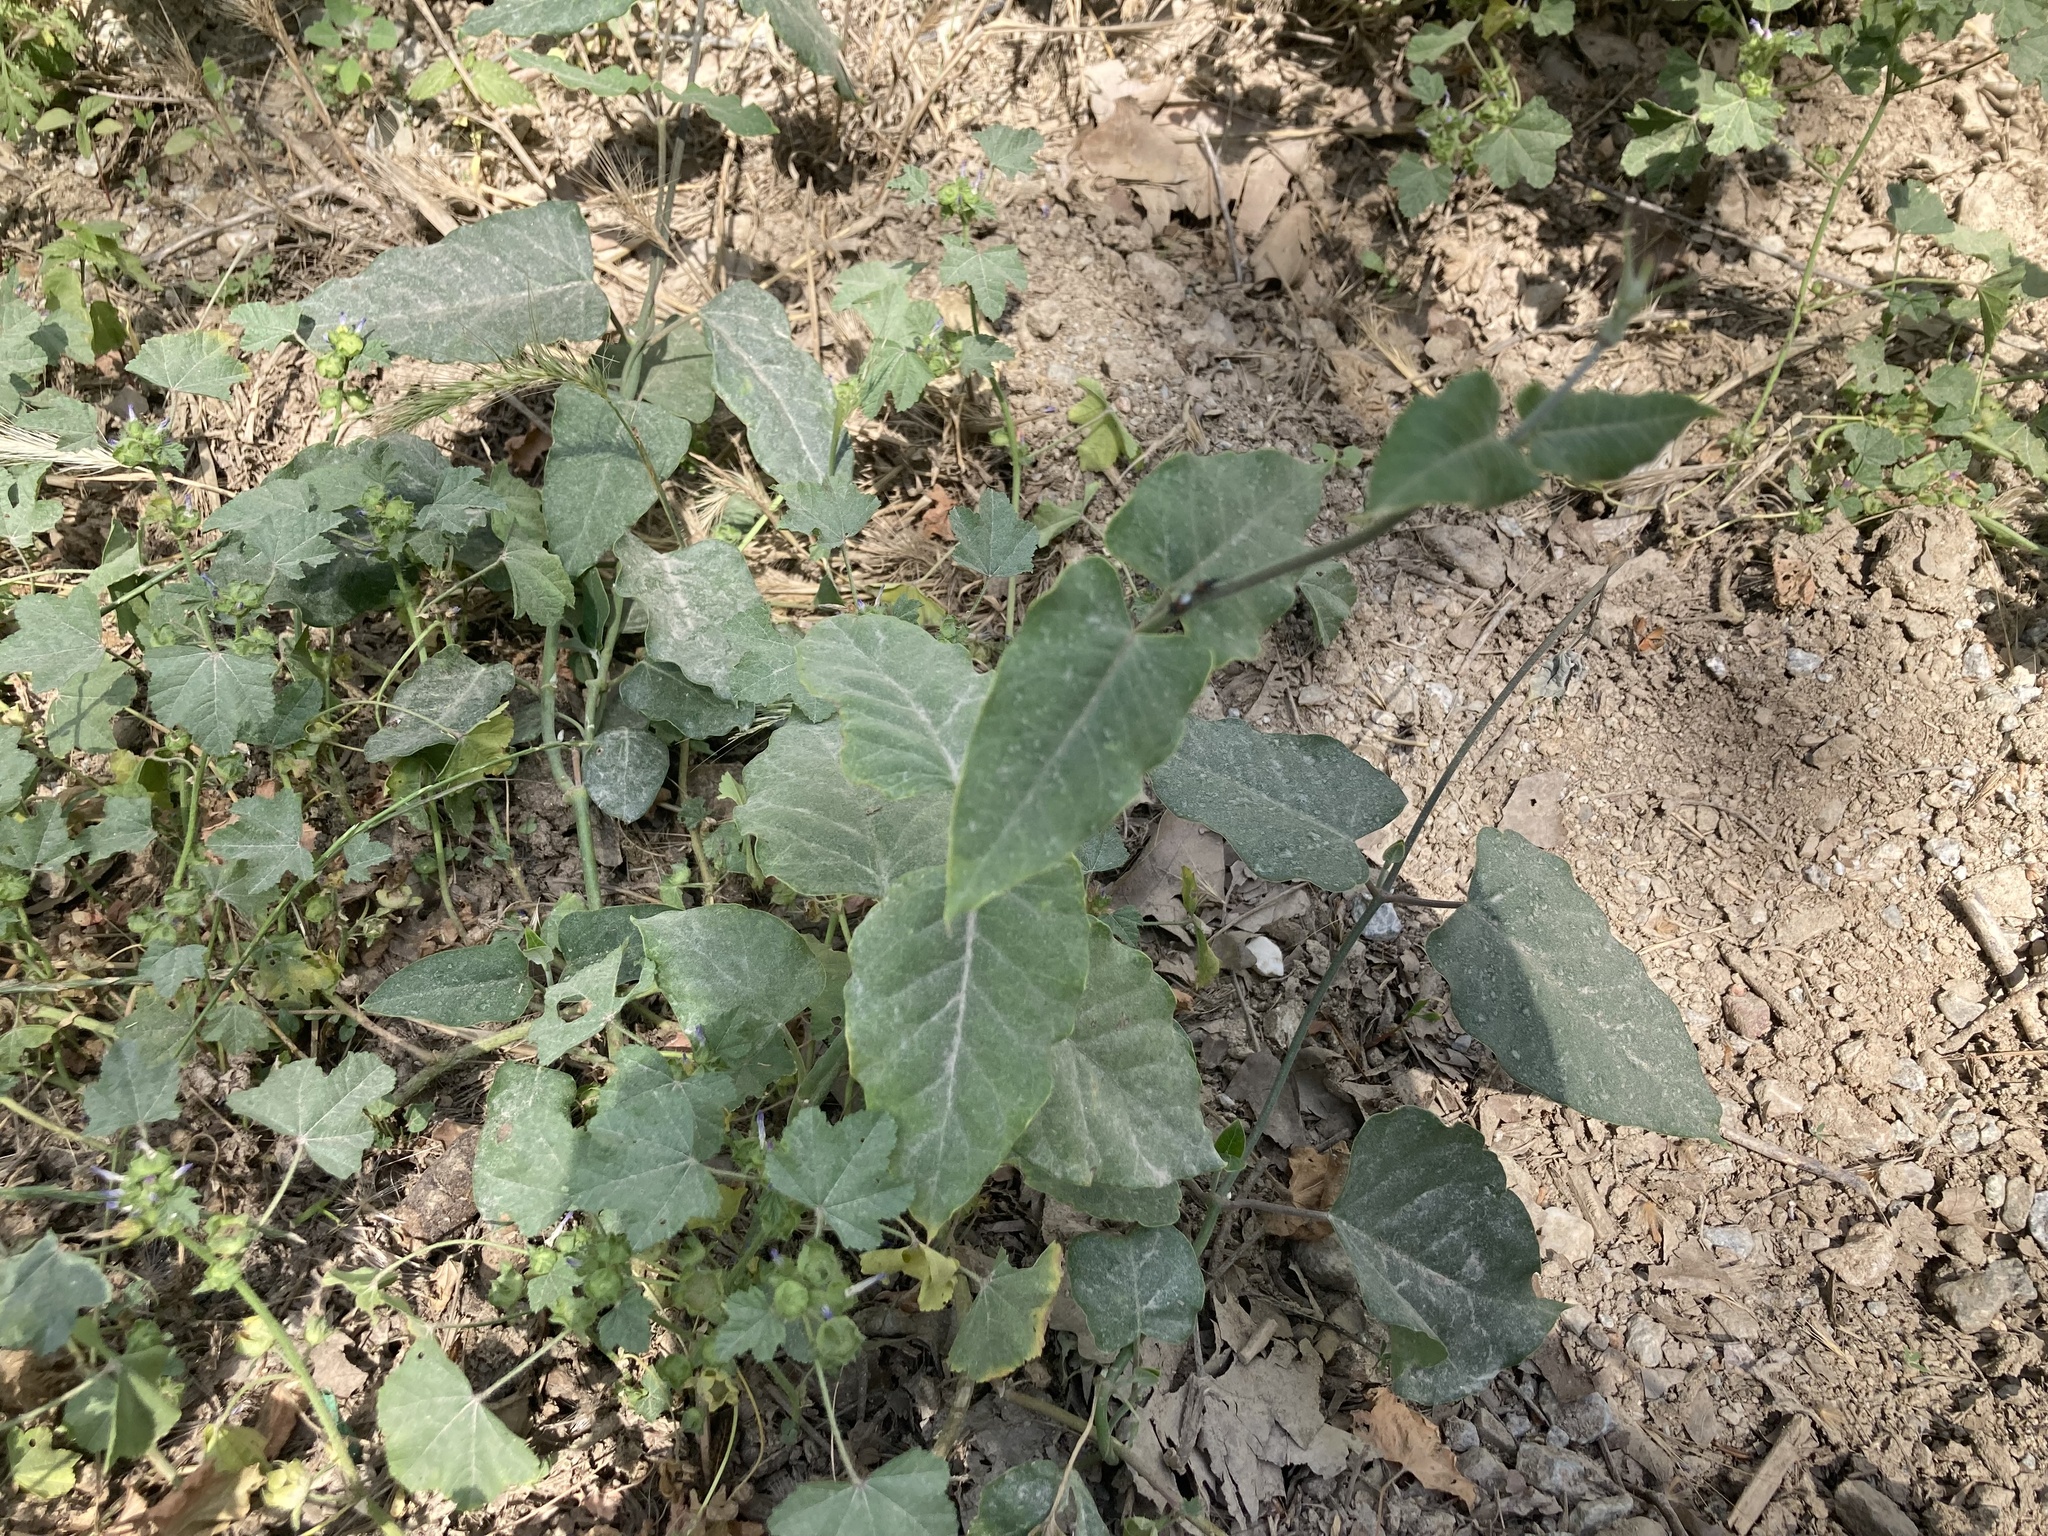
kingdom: Plantae
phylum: Tracheophyta
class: Magnoliopsida
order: Gentianales
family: Apocynaceae
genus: Araujia
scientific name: Araujia sericifera
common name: White bladderflower
